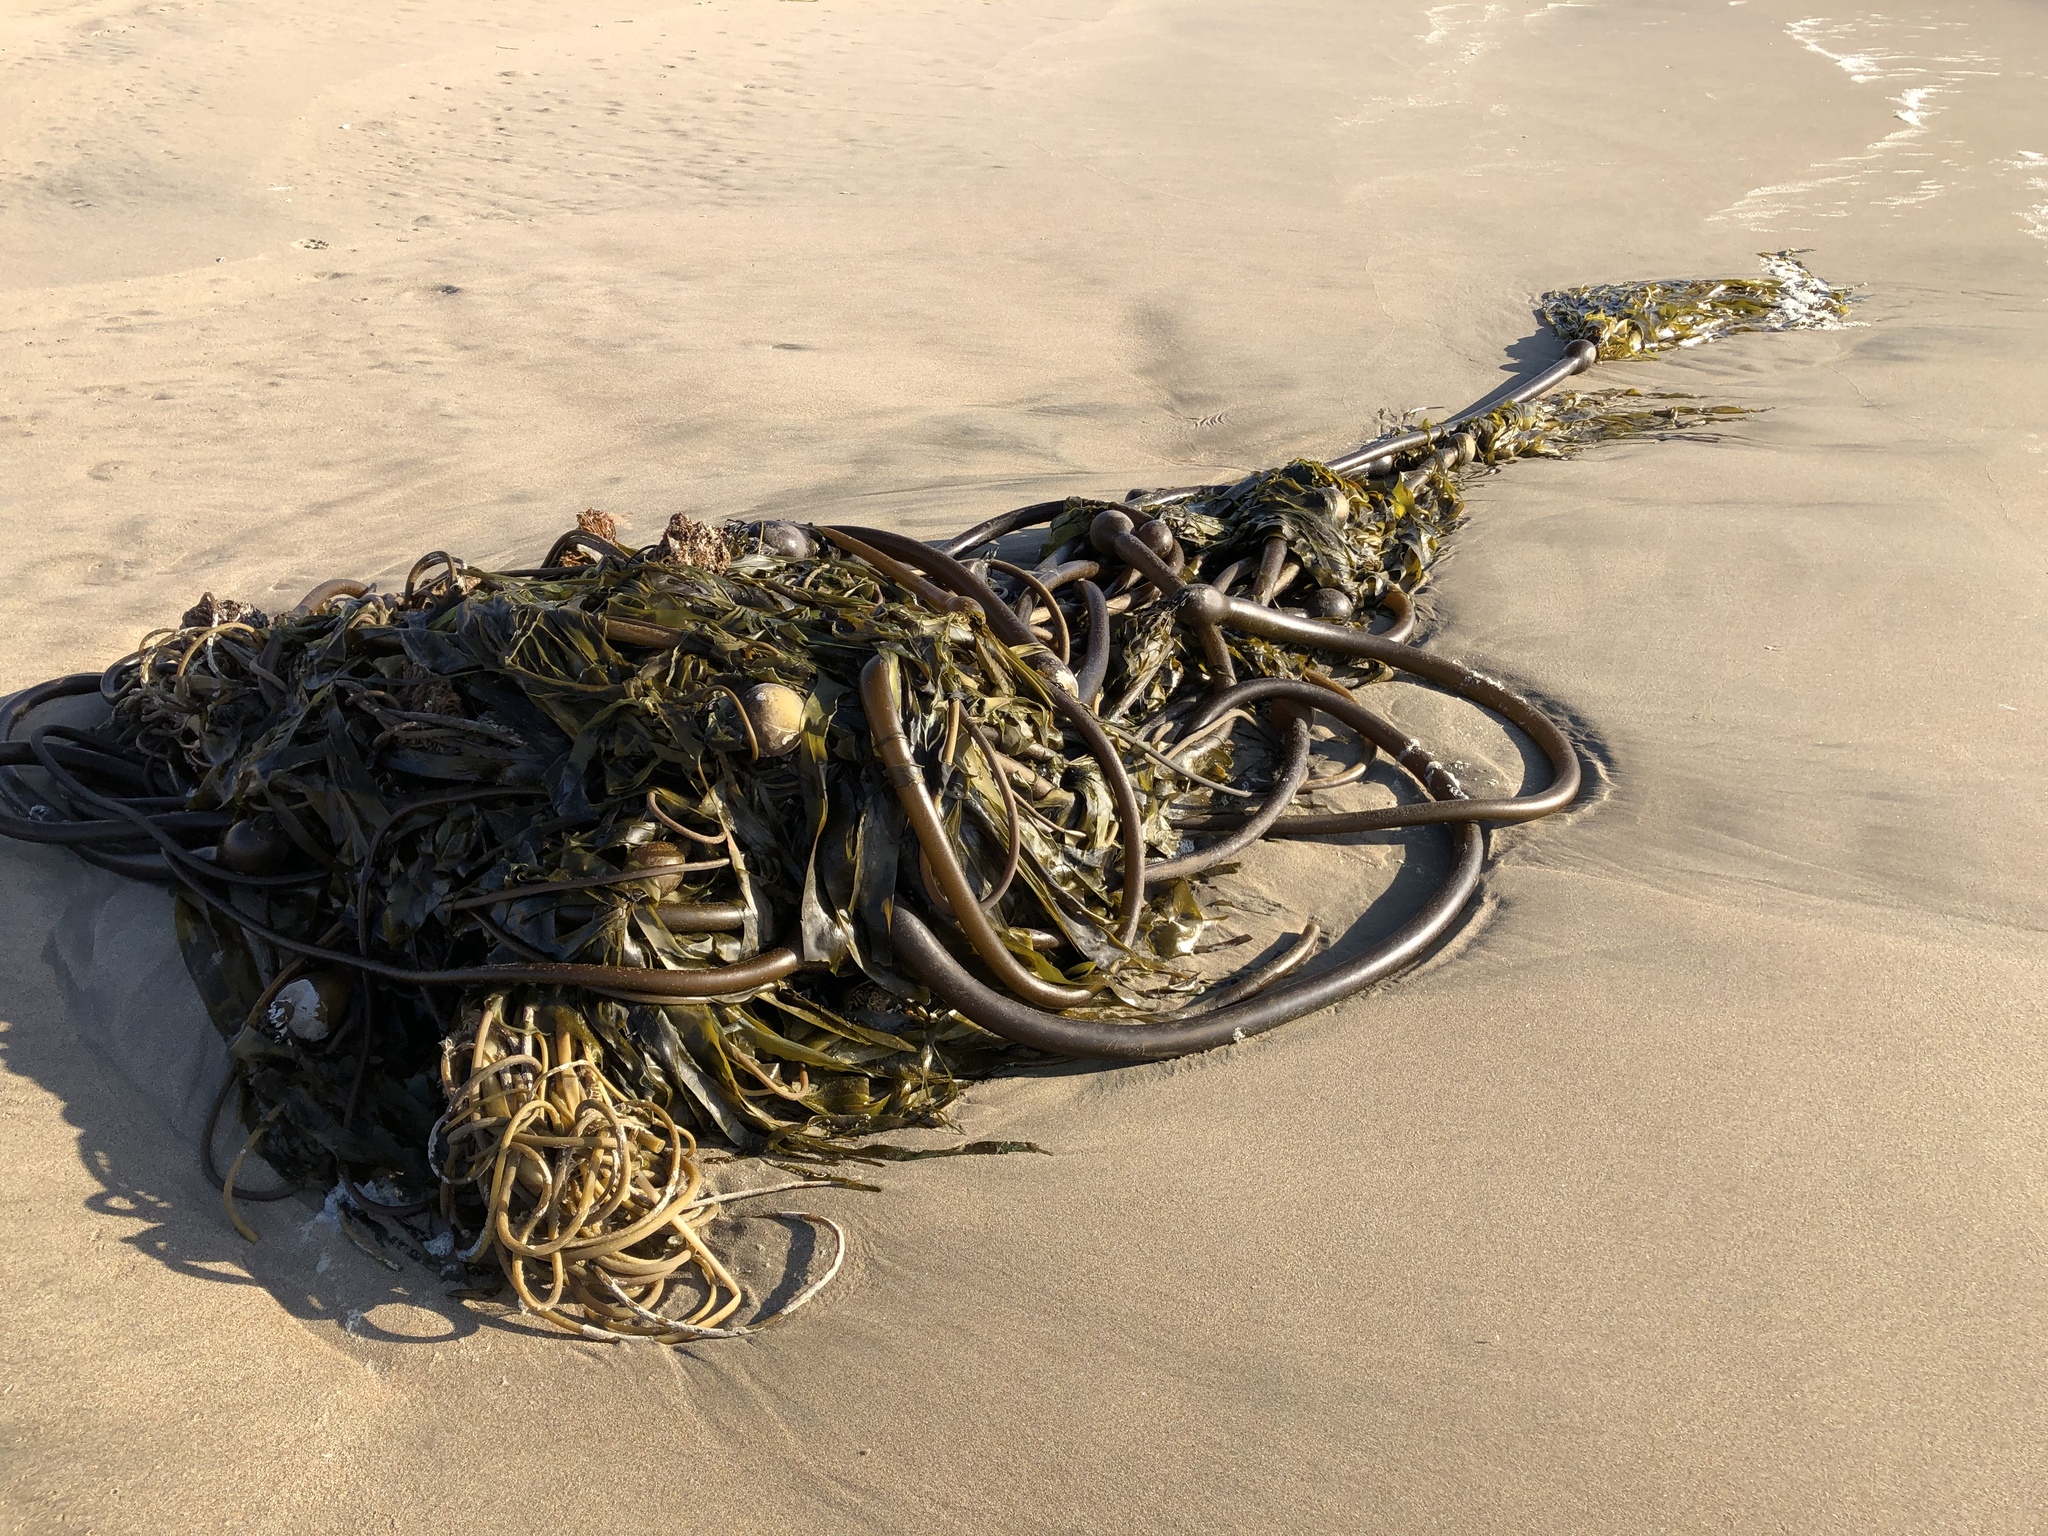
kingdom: Chromista
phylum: Ochrophyta
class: Phaeophyceae
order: Laminariales
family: Laminariaceae
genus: Nereocystis
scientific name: Nereocystis luetkeana
